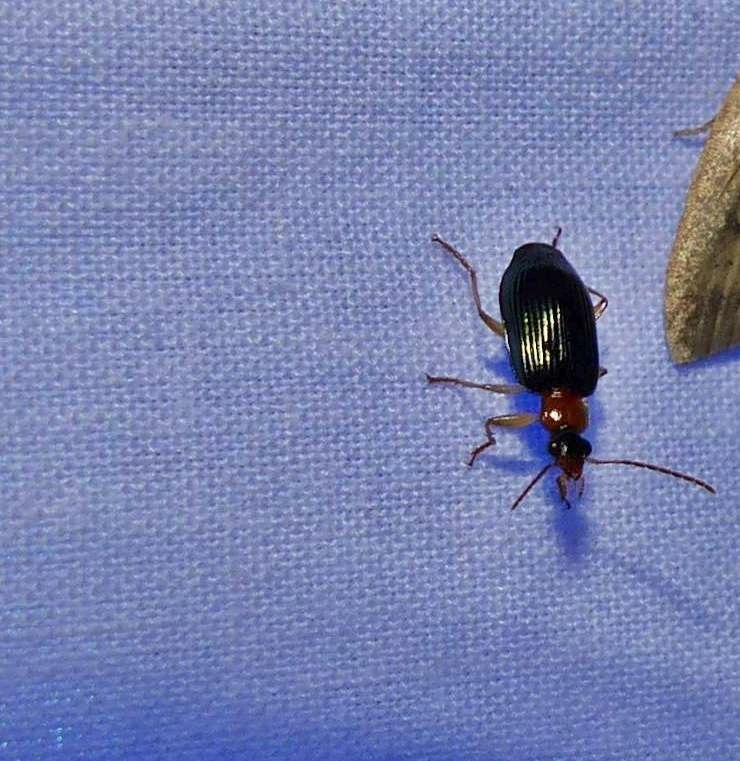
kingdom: Animalia
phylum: Arthropoda
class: Insecta
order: Coleoptera
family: Carabidae
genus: Lebia
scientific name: Lebia tricolor
